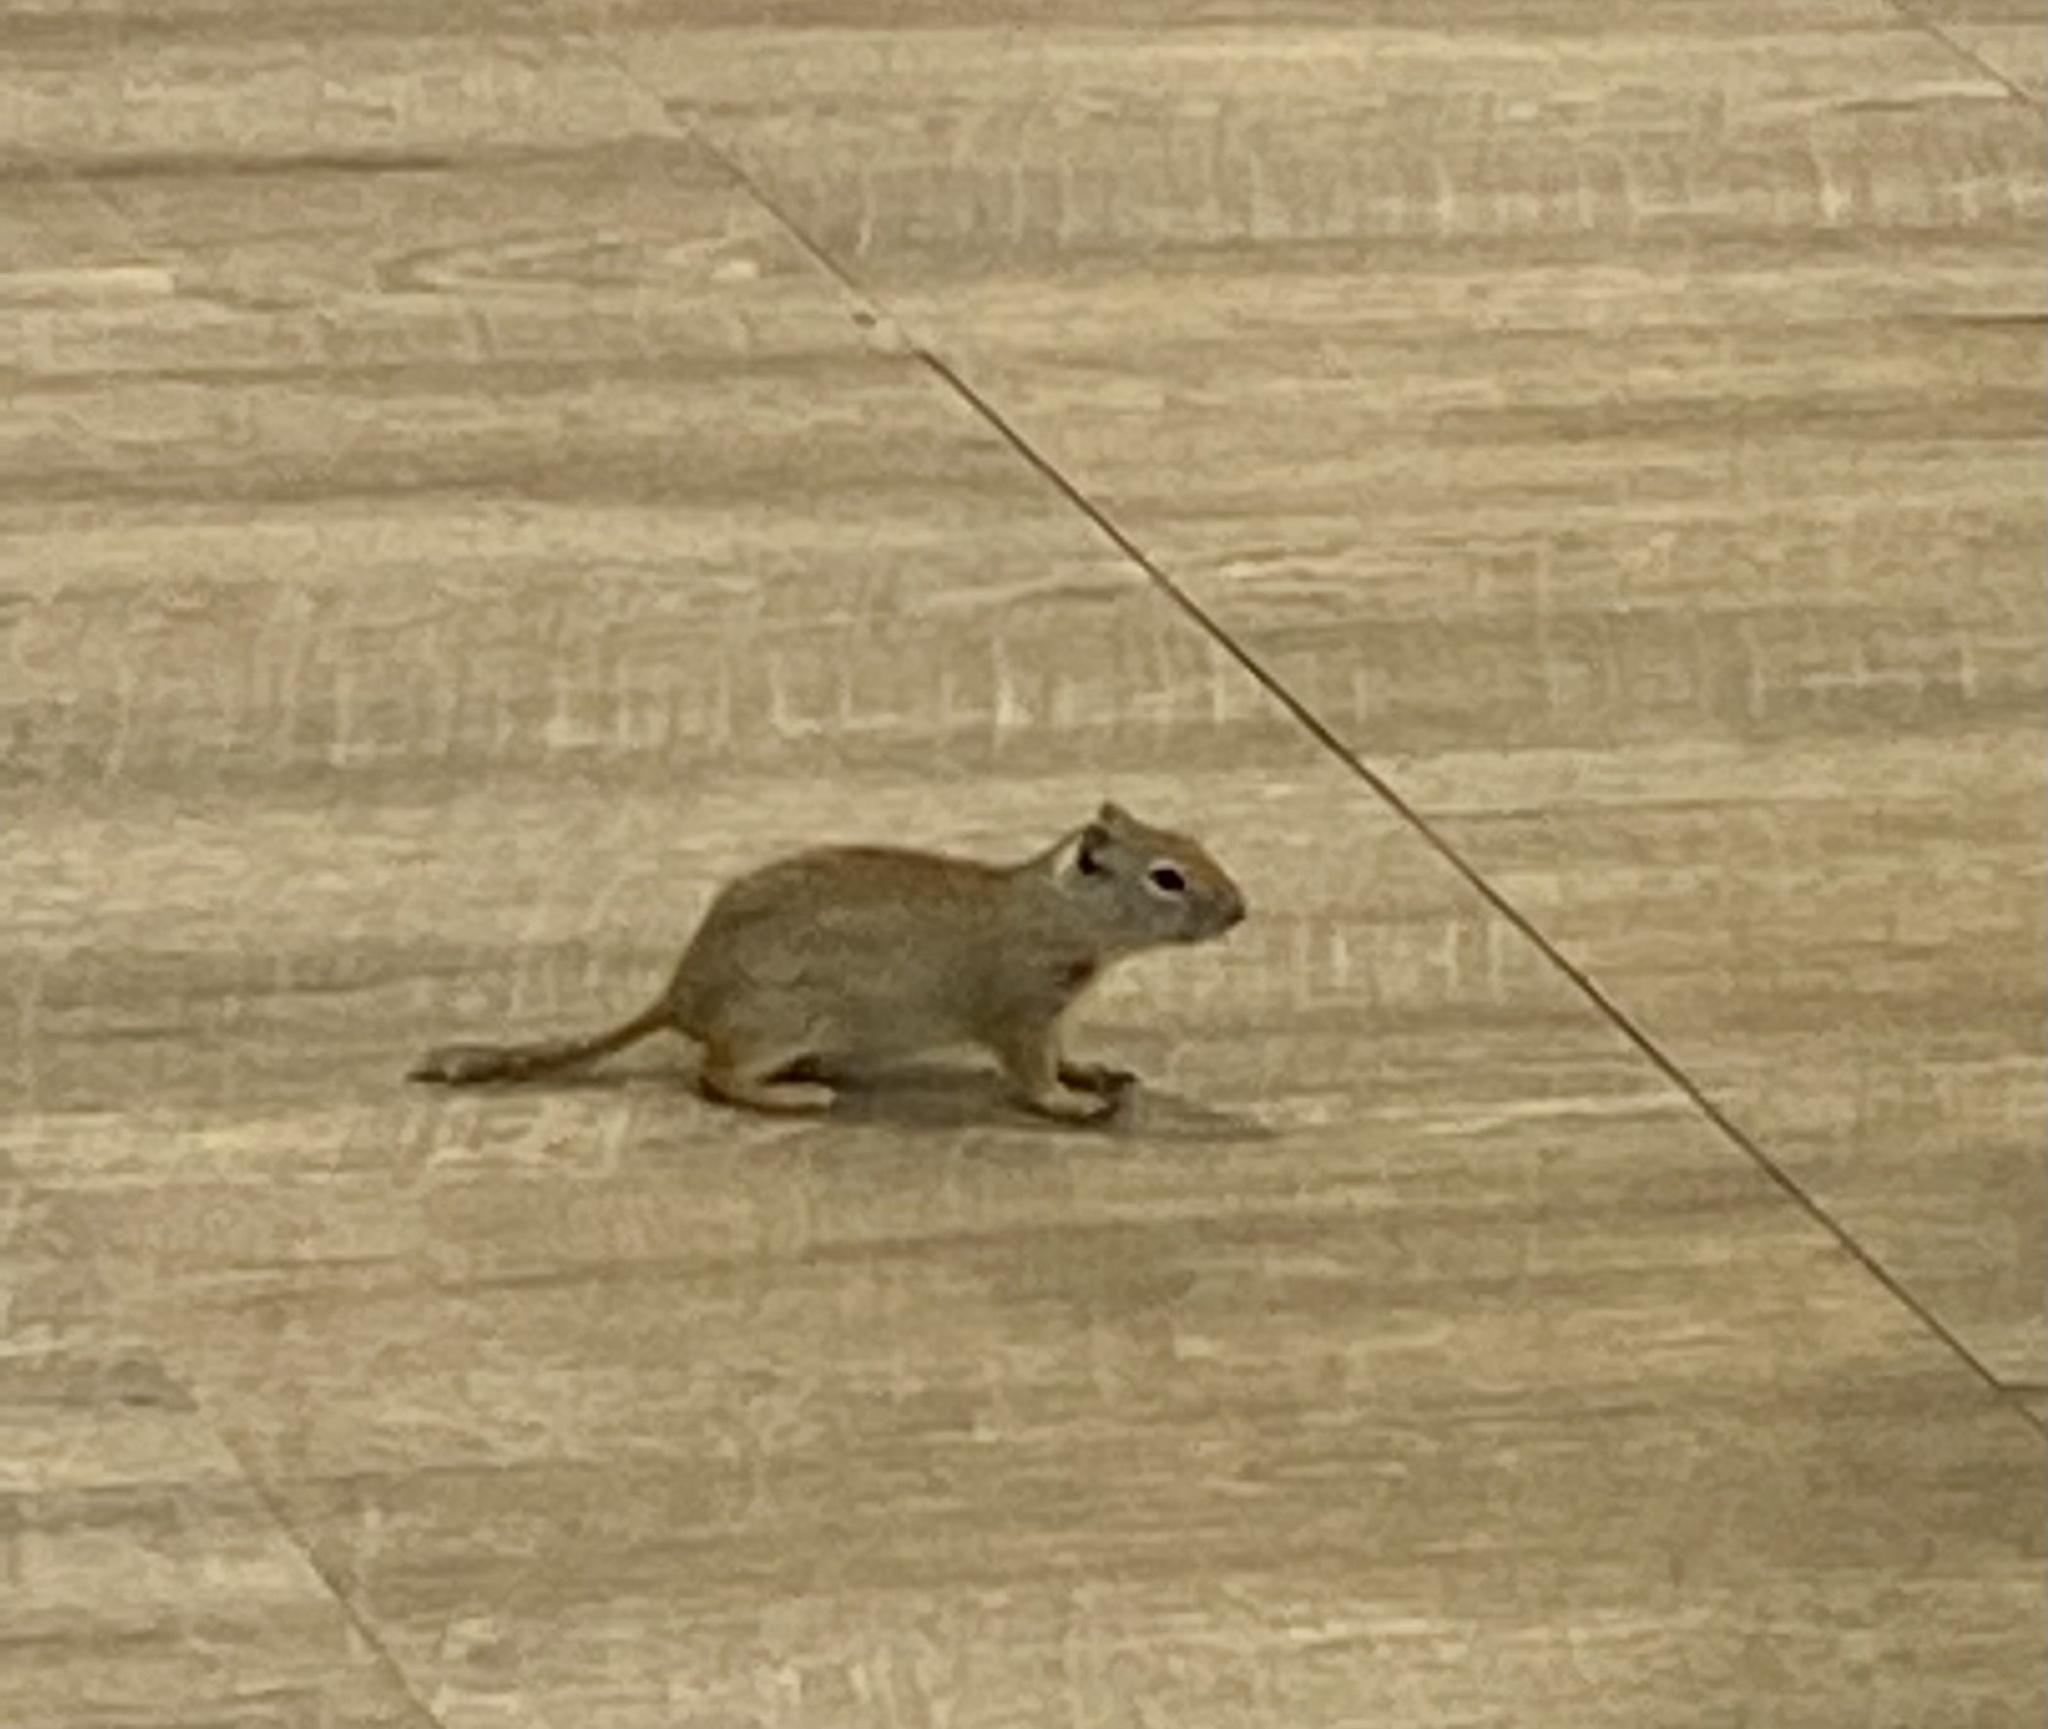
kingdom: Animalia
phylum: Chordata
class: Mammalia
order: Rodentia
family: Sciuridae
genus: Urocitellus
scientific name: Urocitellus armatus
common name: Uinta ground squirrel
